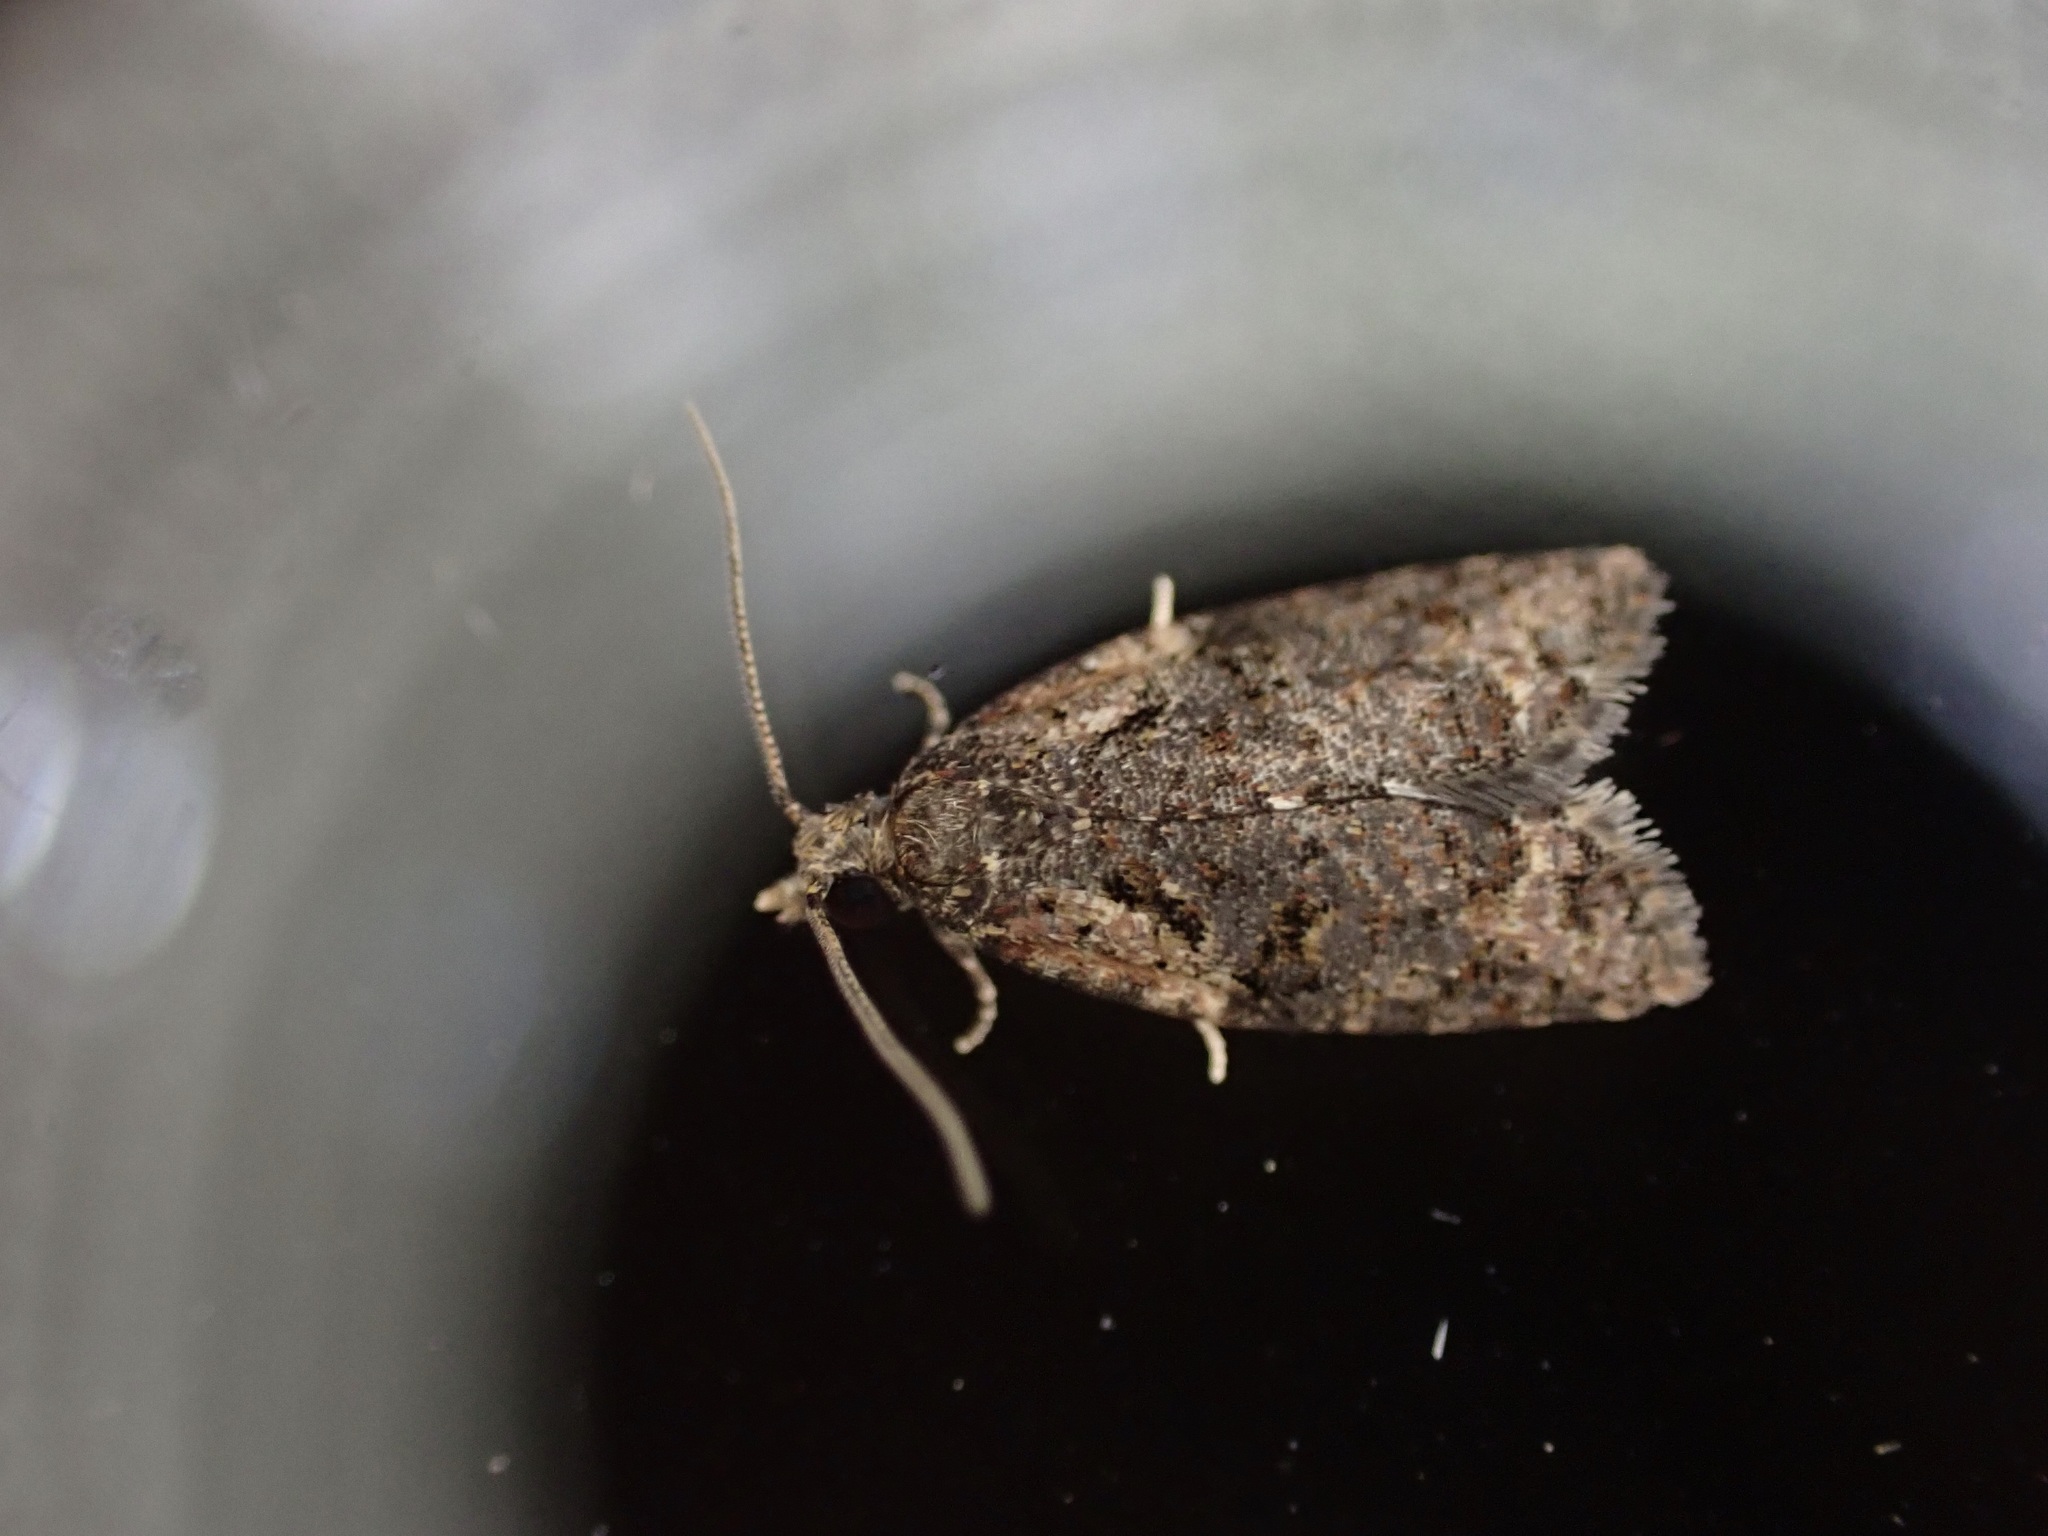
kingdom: Animalia
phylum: Arthropoda
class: Insecta
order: Lepidoptera
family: Tortricidae
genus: Capua
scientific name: Capua intractana
